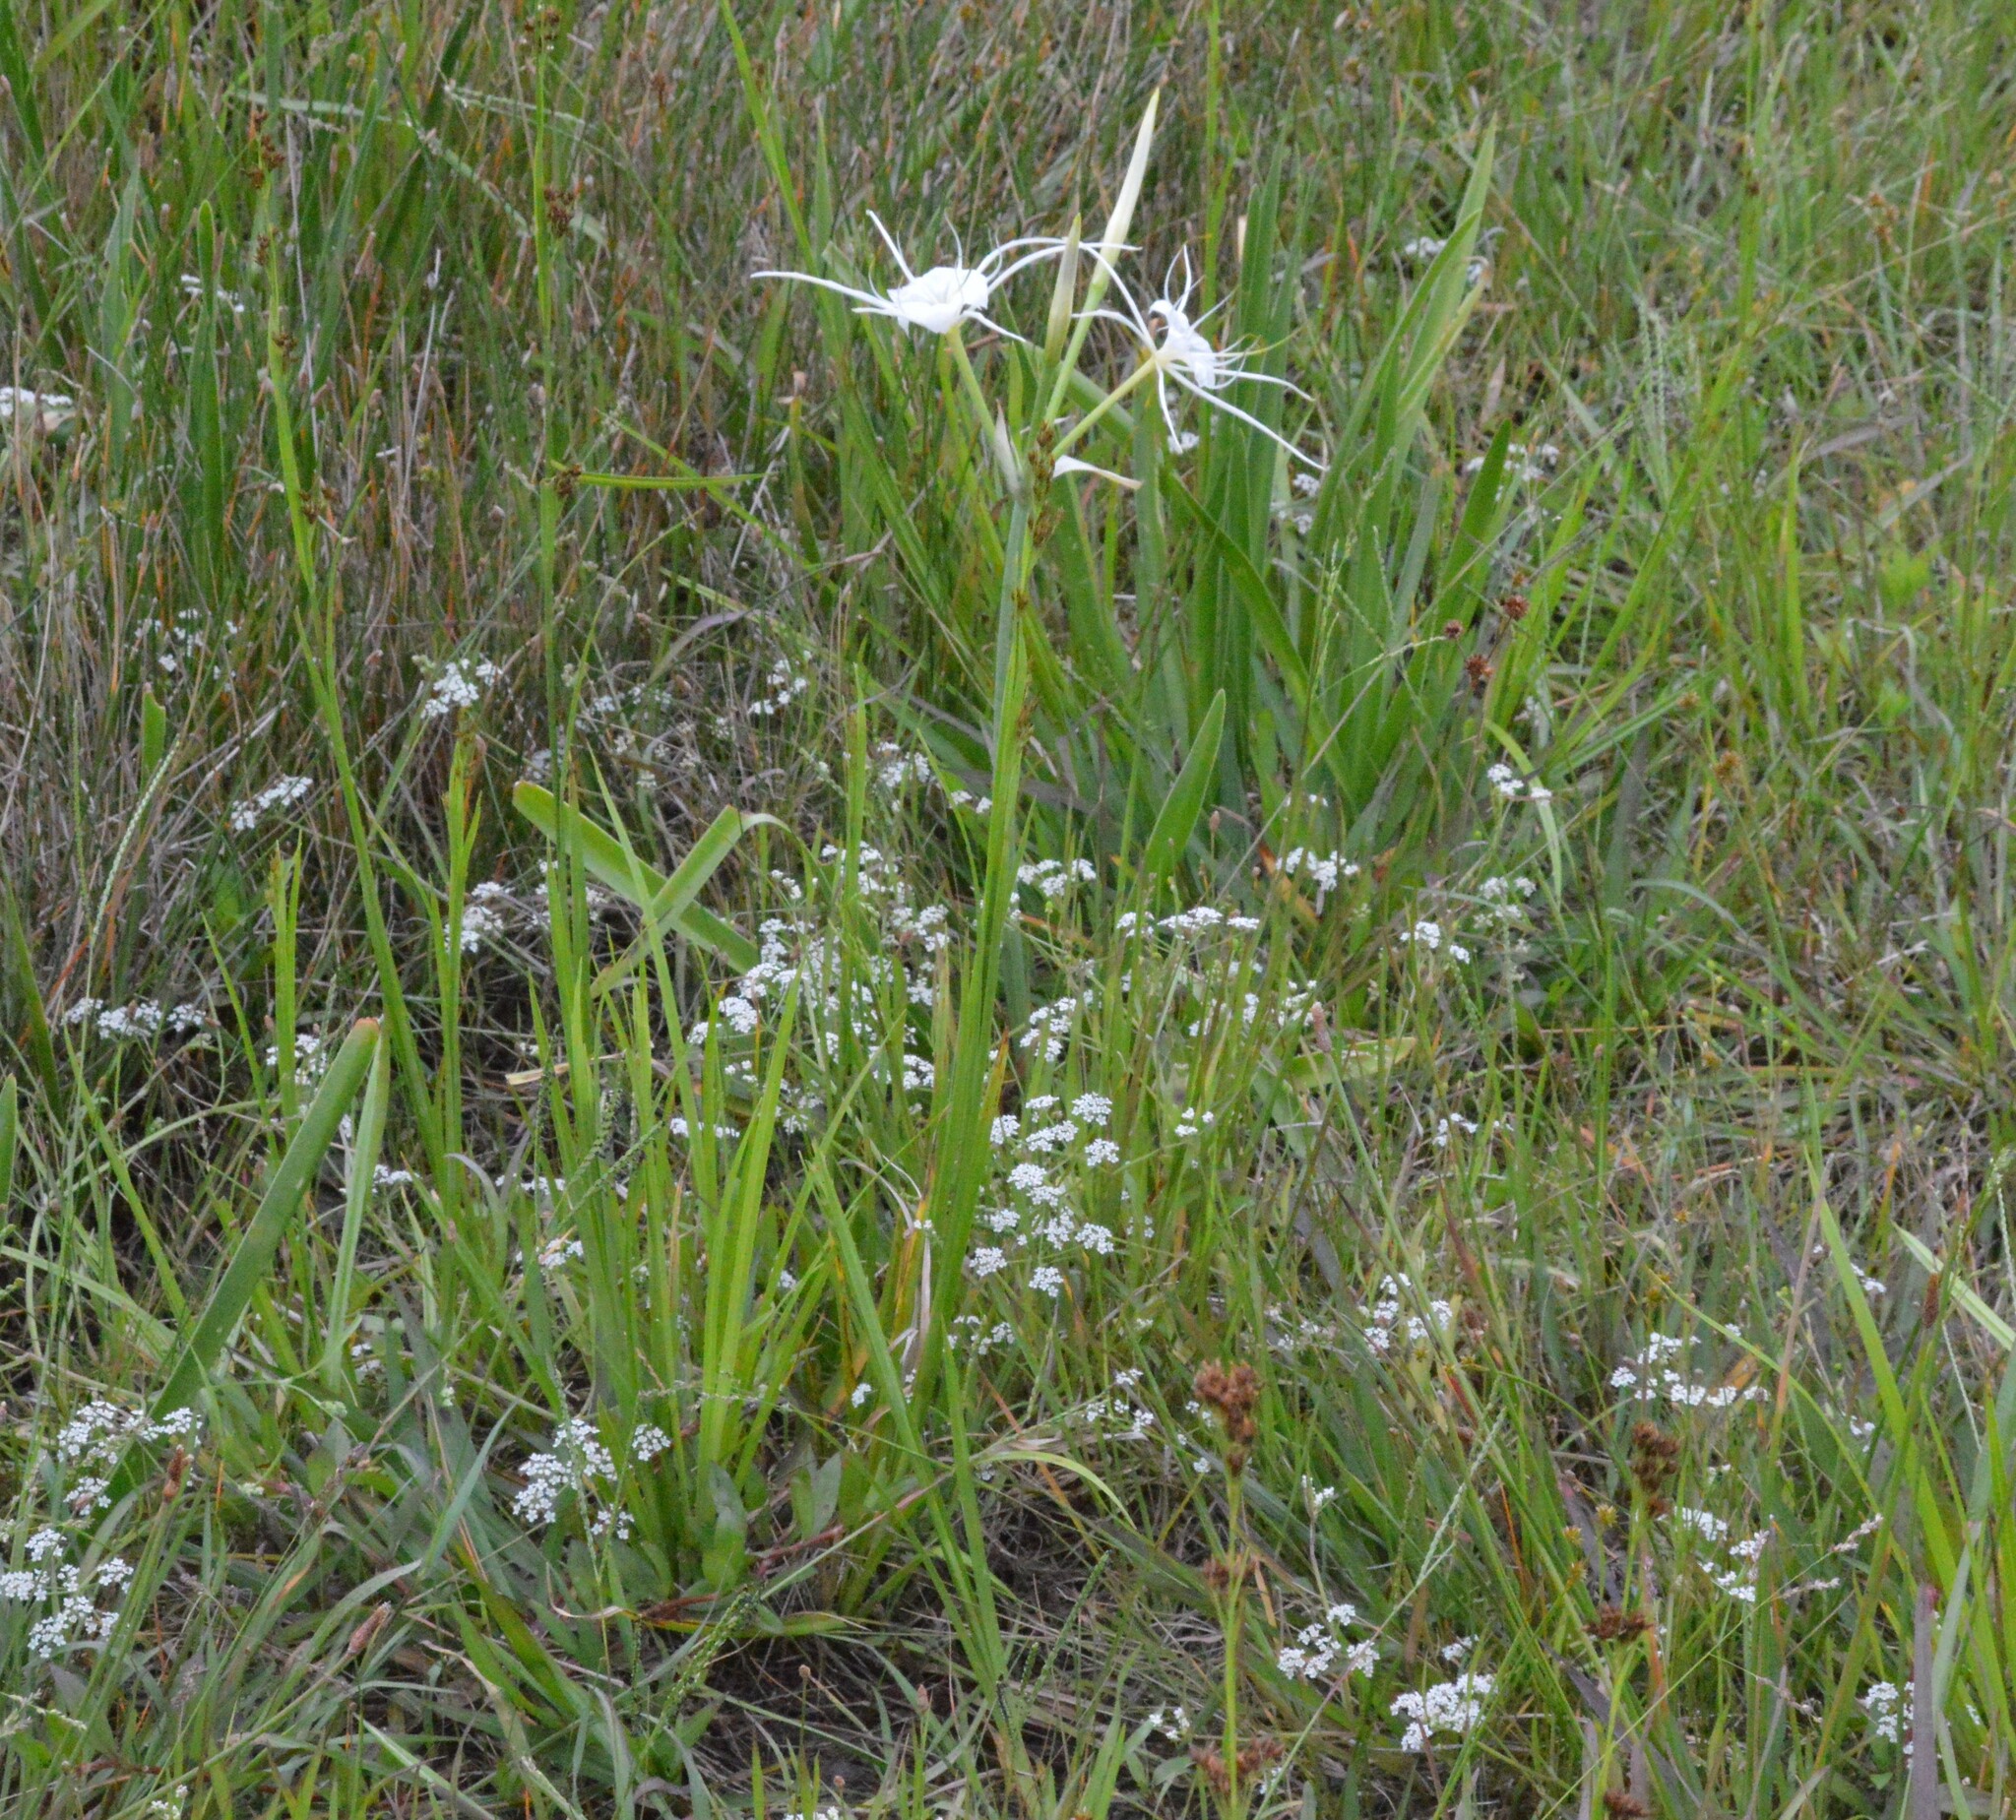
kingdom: Plantae
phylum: Tracheophyta
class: Liliopsida
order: Asparagales
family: Amaryllidaceae
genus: Hymenocallis
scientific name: Hymenocallis liriosme
